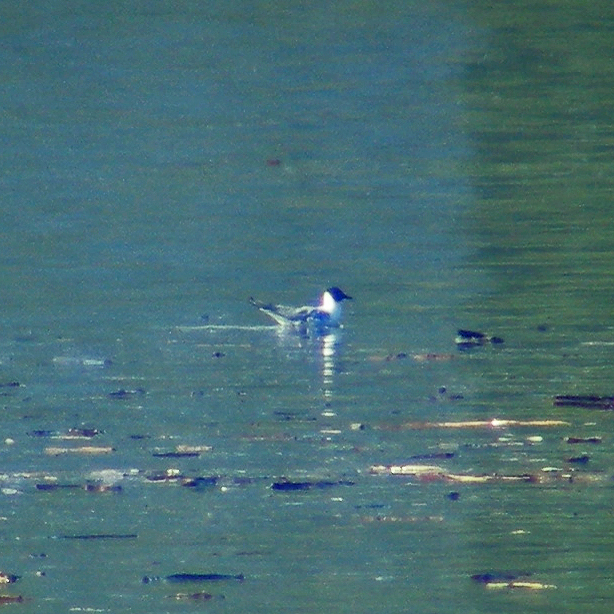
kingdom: Animalia
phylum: Chordata
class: Aves
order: Charadriiformes
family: Laridae
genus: Chroicocephalus
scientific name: Chroicocephalus philadelphia
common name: Bonaparte's gull
